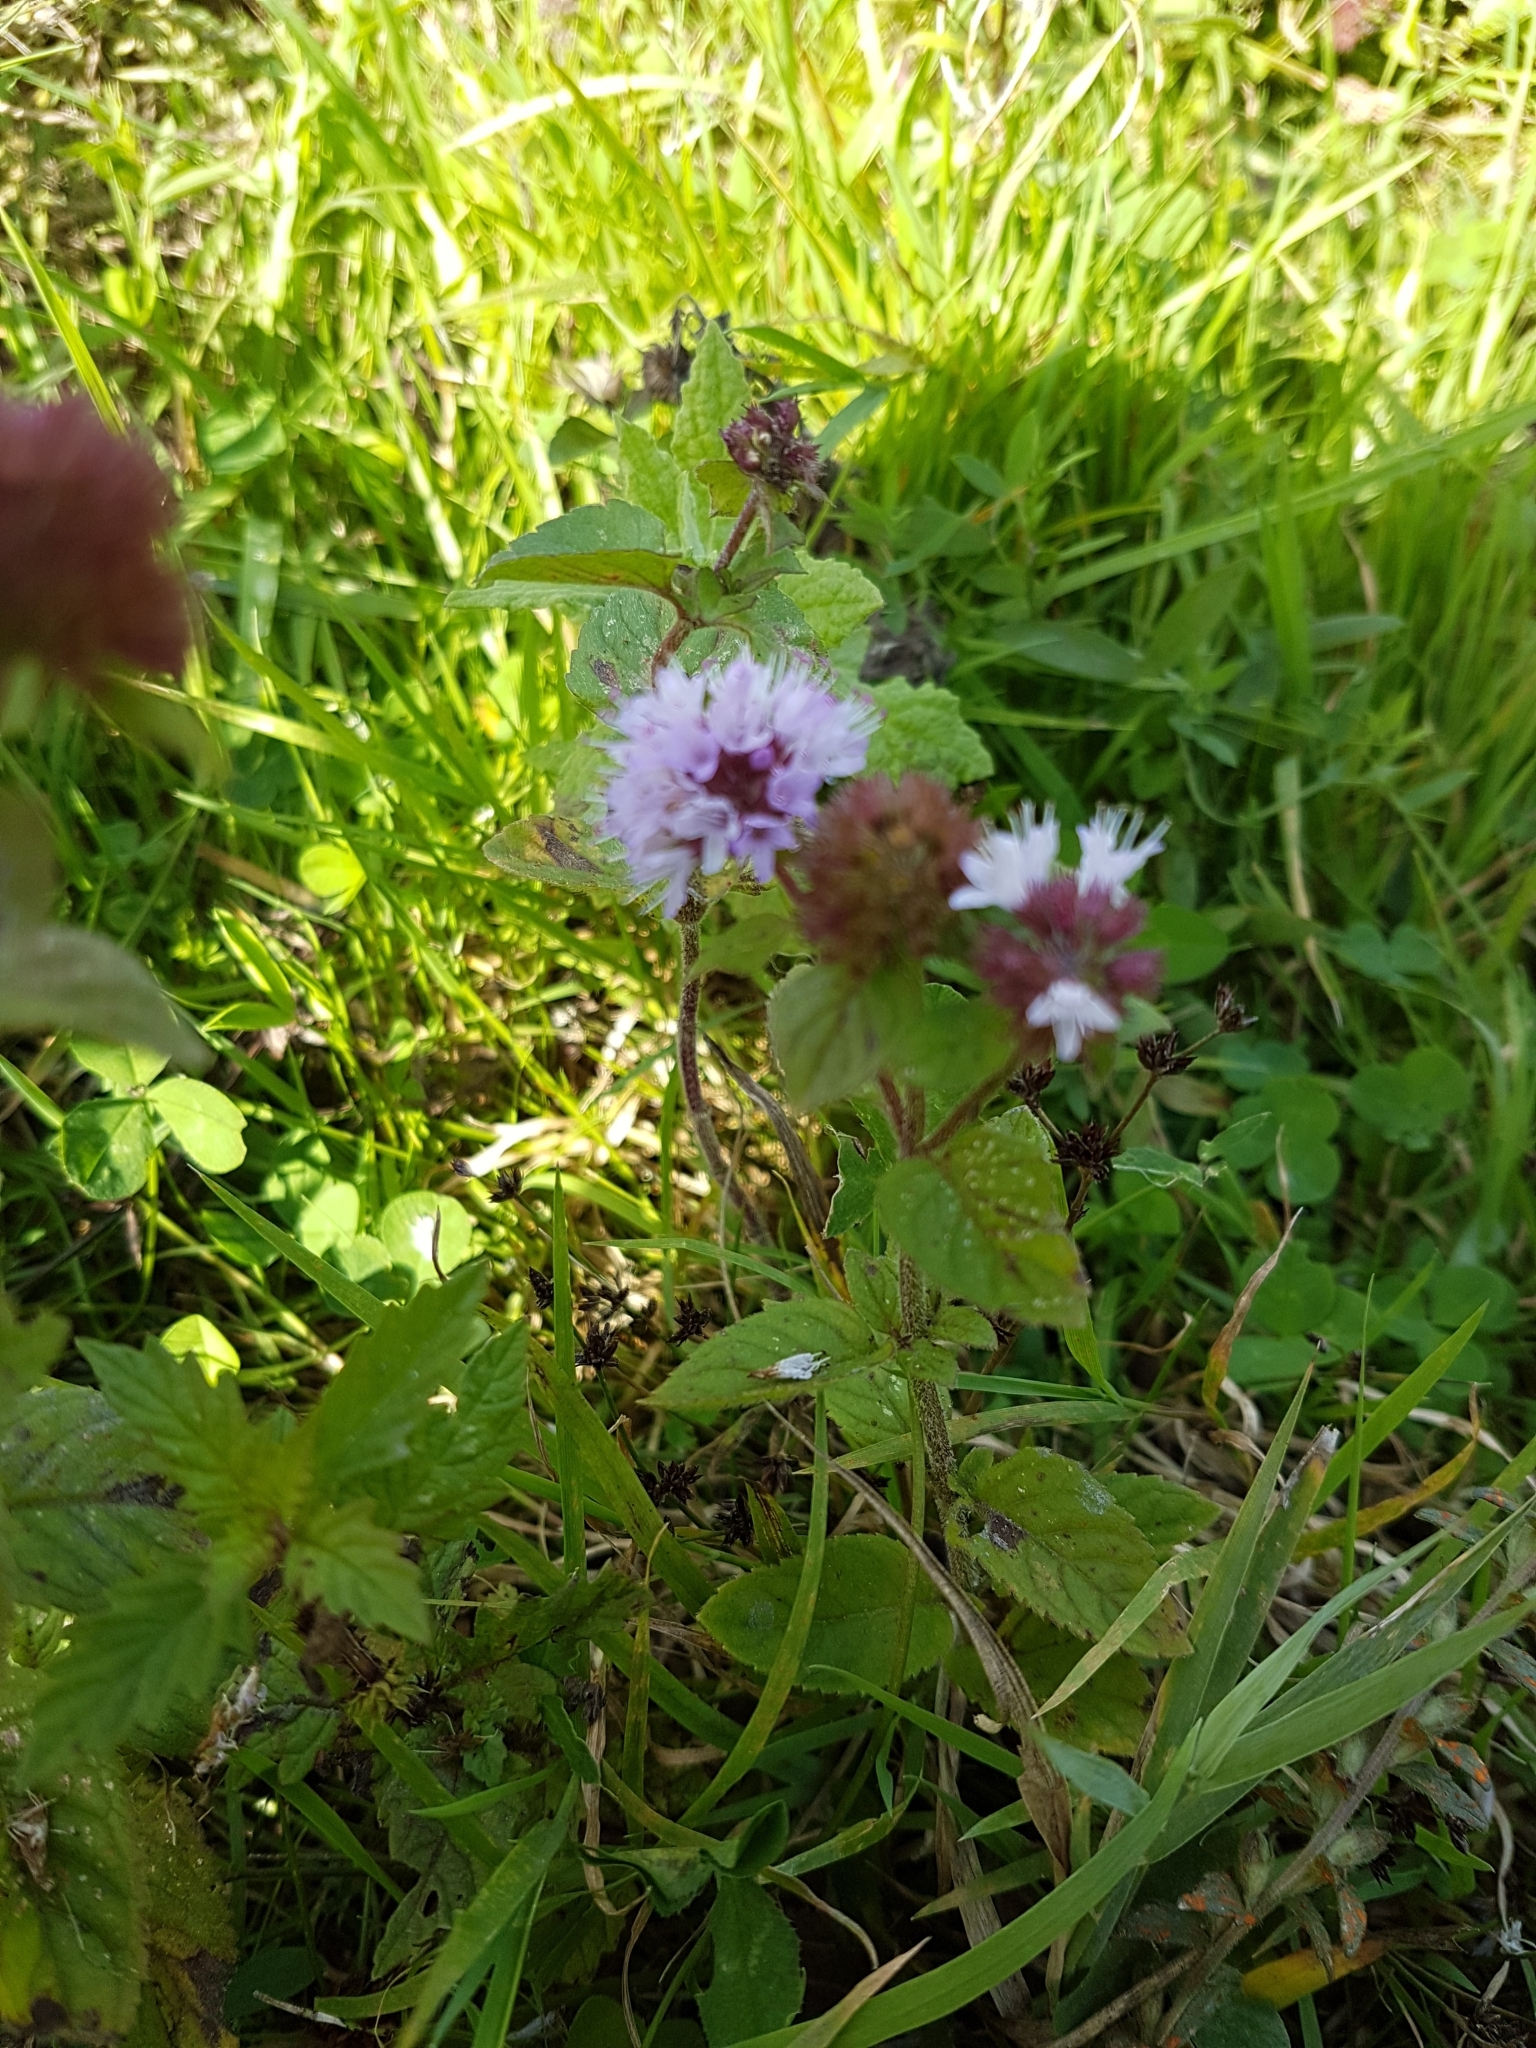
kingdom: Plantae
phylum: Tracheophyta
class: Magnoliopsida
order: Lamiales
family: Lamiaceae
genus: Mentha
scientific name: Mentha aquatica
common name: Water mint
